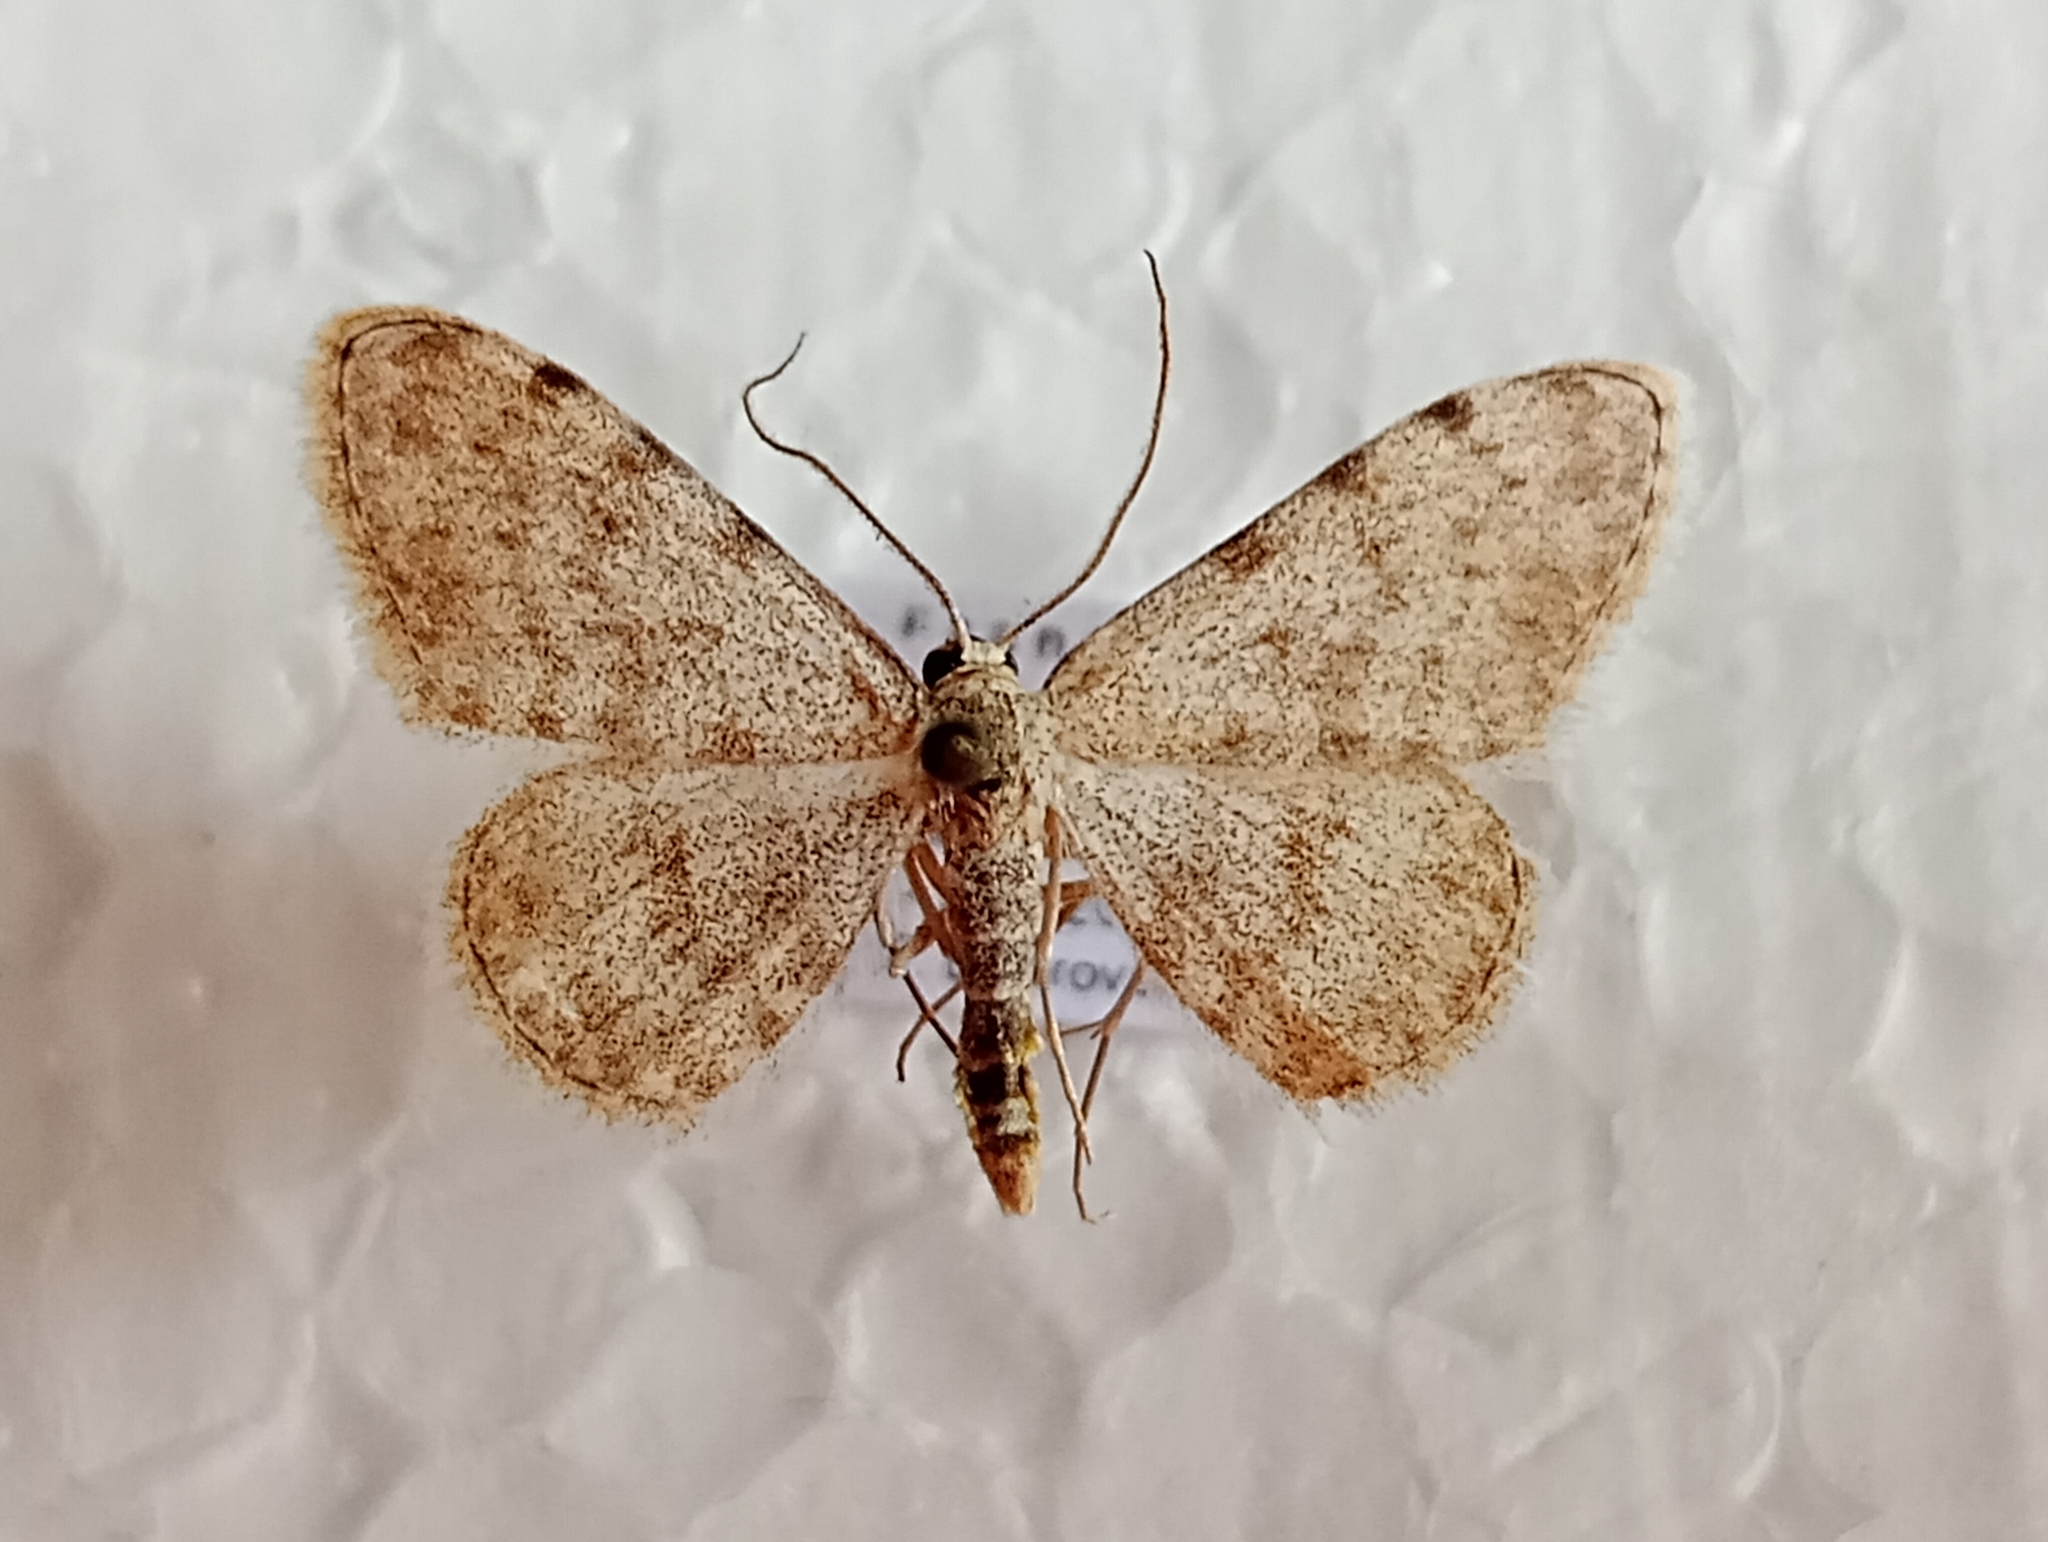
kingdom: Animalia
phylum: Arthropoda
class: Insecta
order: Lepidoptera
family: Geometridae
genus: Glossotrophia
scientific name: Glossotrophia confinaria
